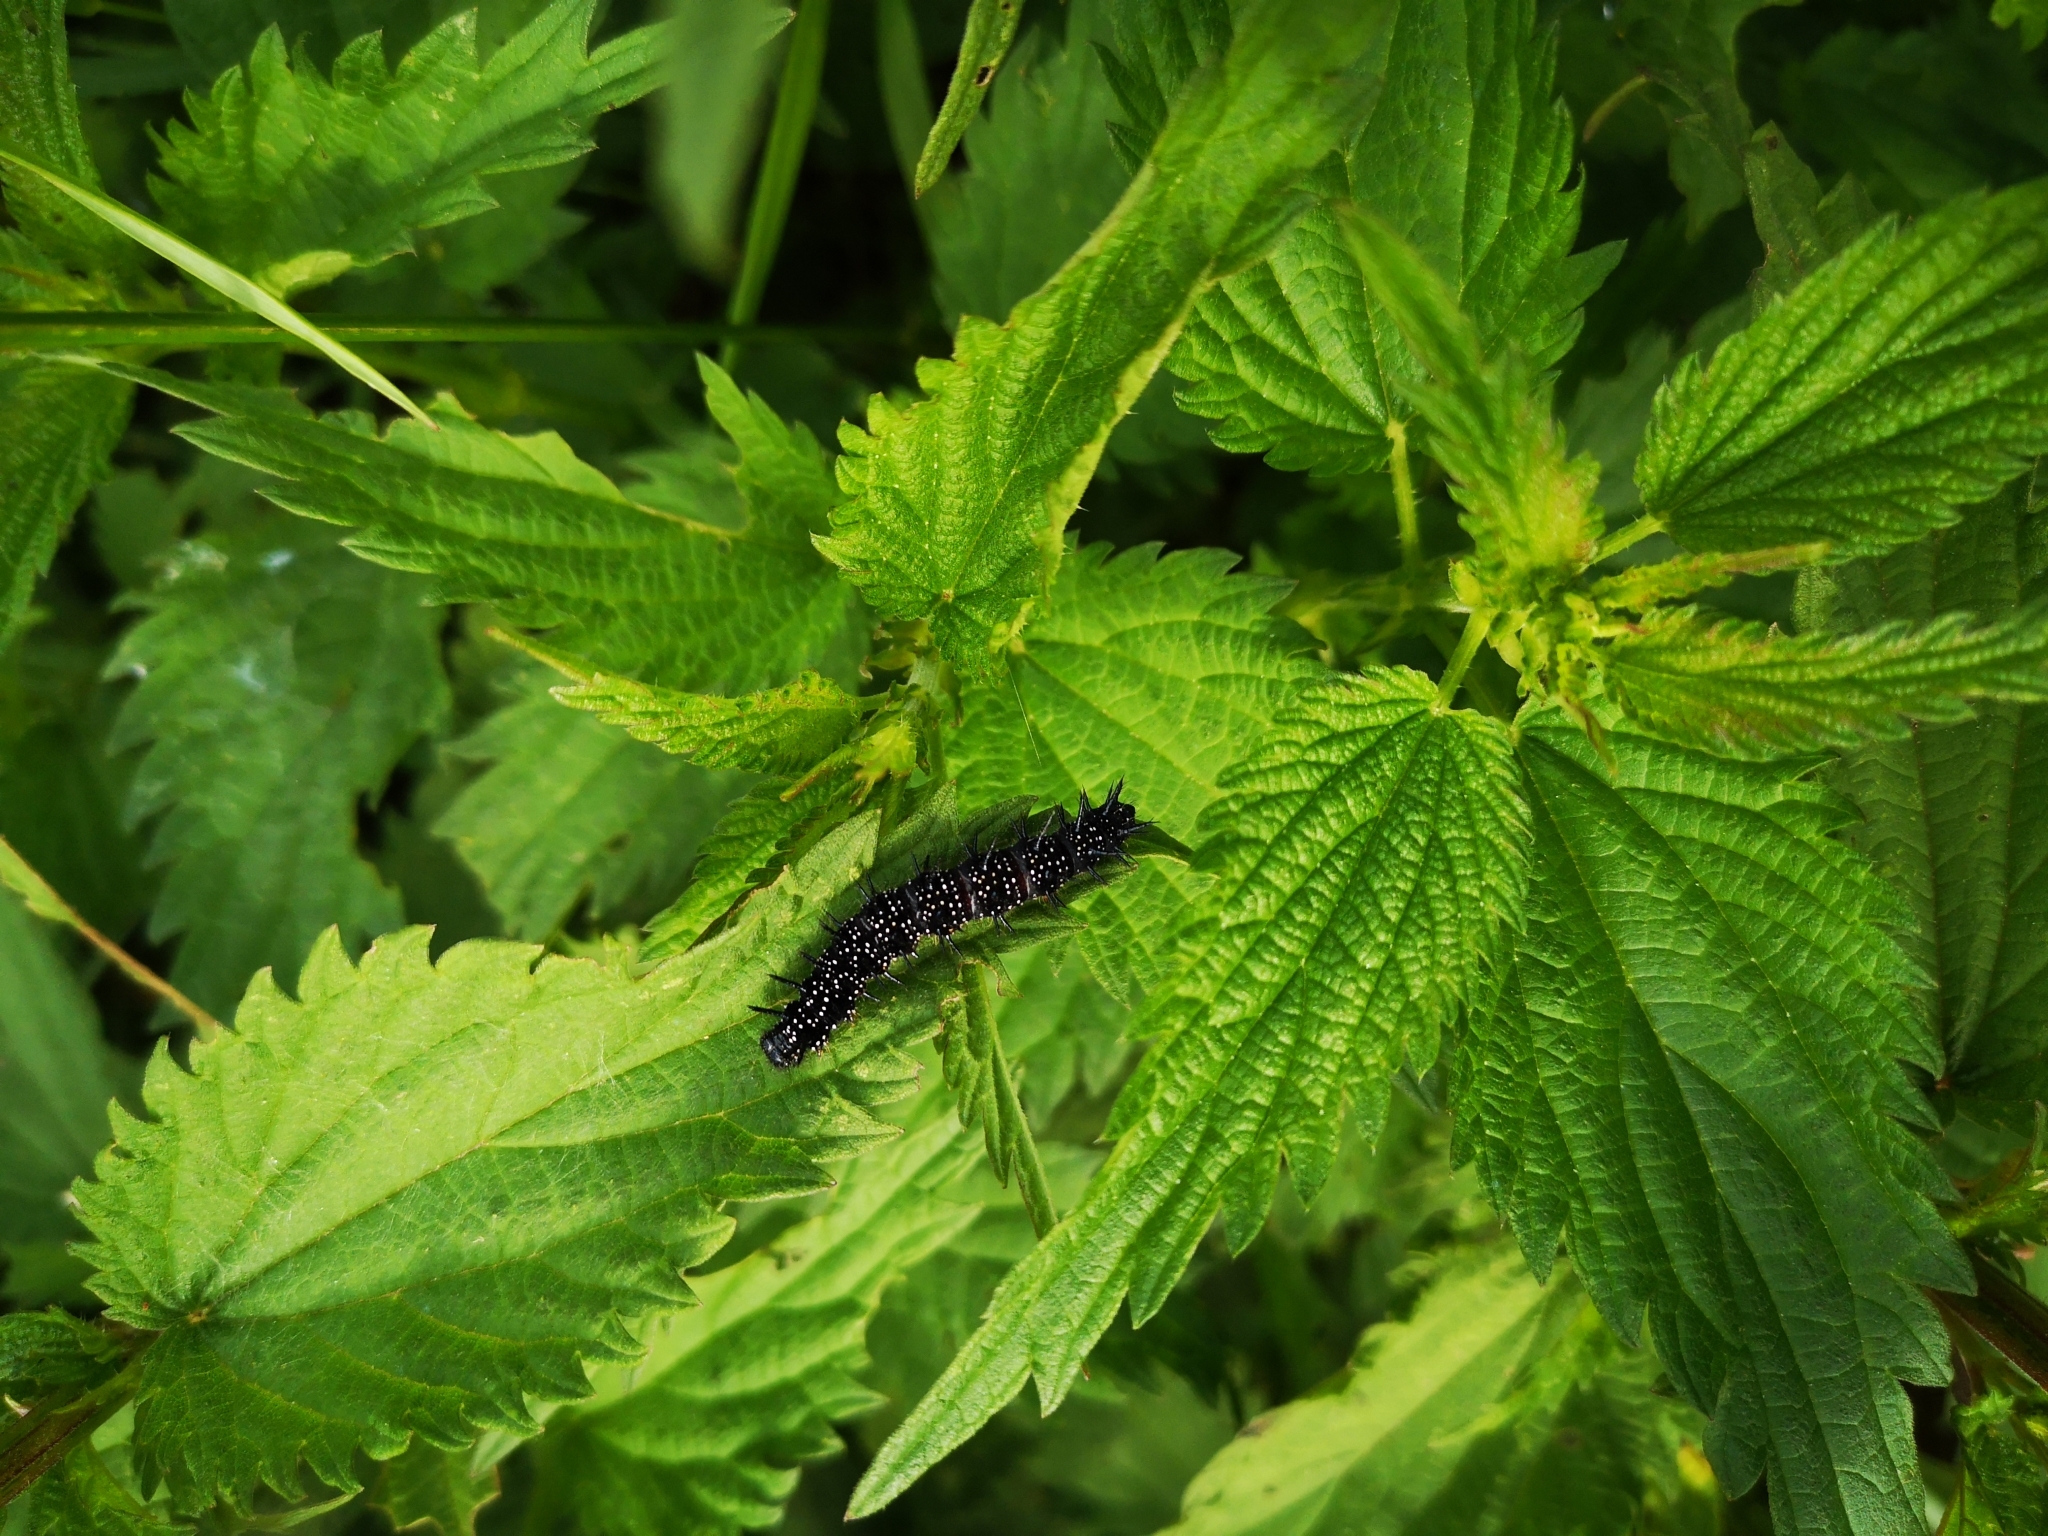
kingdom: Animalia
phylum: Arthropoda
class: Insecta
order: Lepidoptera
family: Nymphalidae
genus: Aglais
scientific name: Aglais io
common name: Peacock
